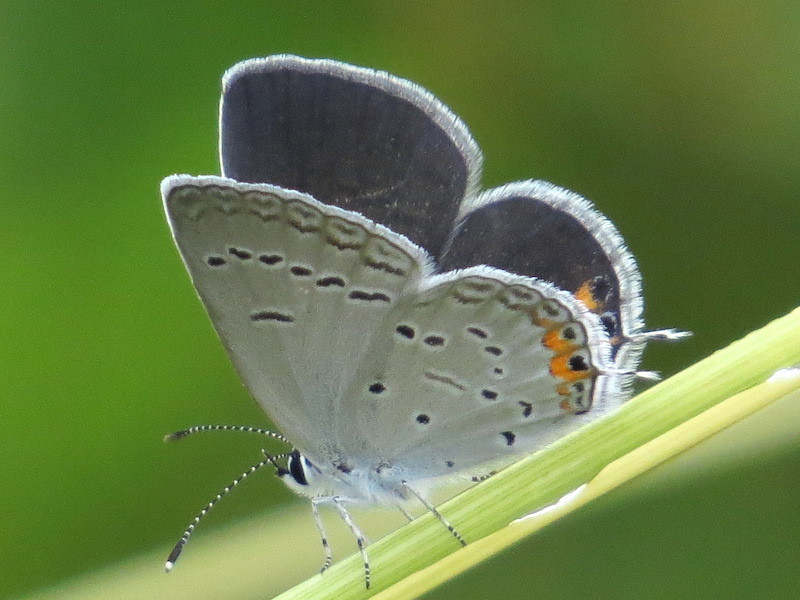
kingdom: Animalia
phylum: Arthropoda
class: Insecta
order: Lepidoptera
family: Lycaenidae
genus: Elkalyce
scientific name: Elkalyce comyntas
